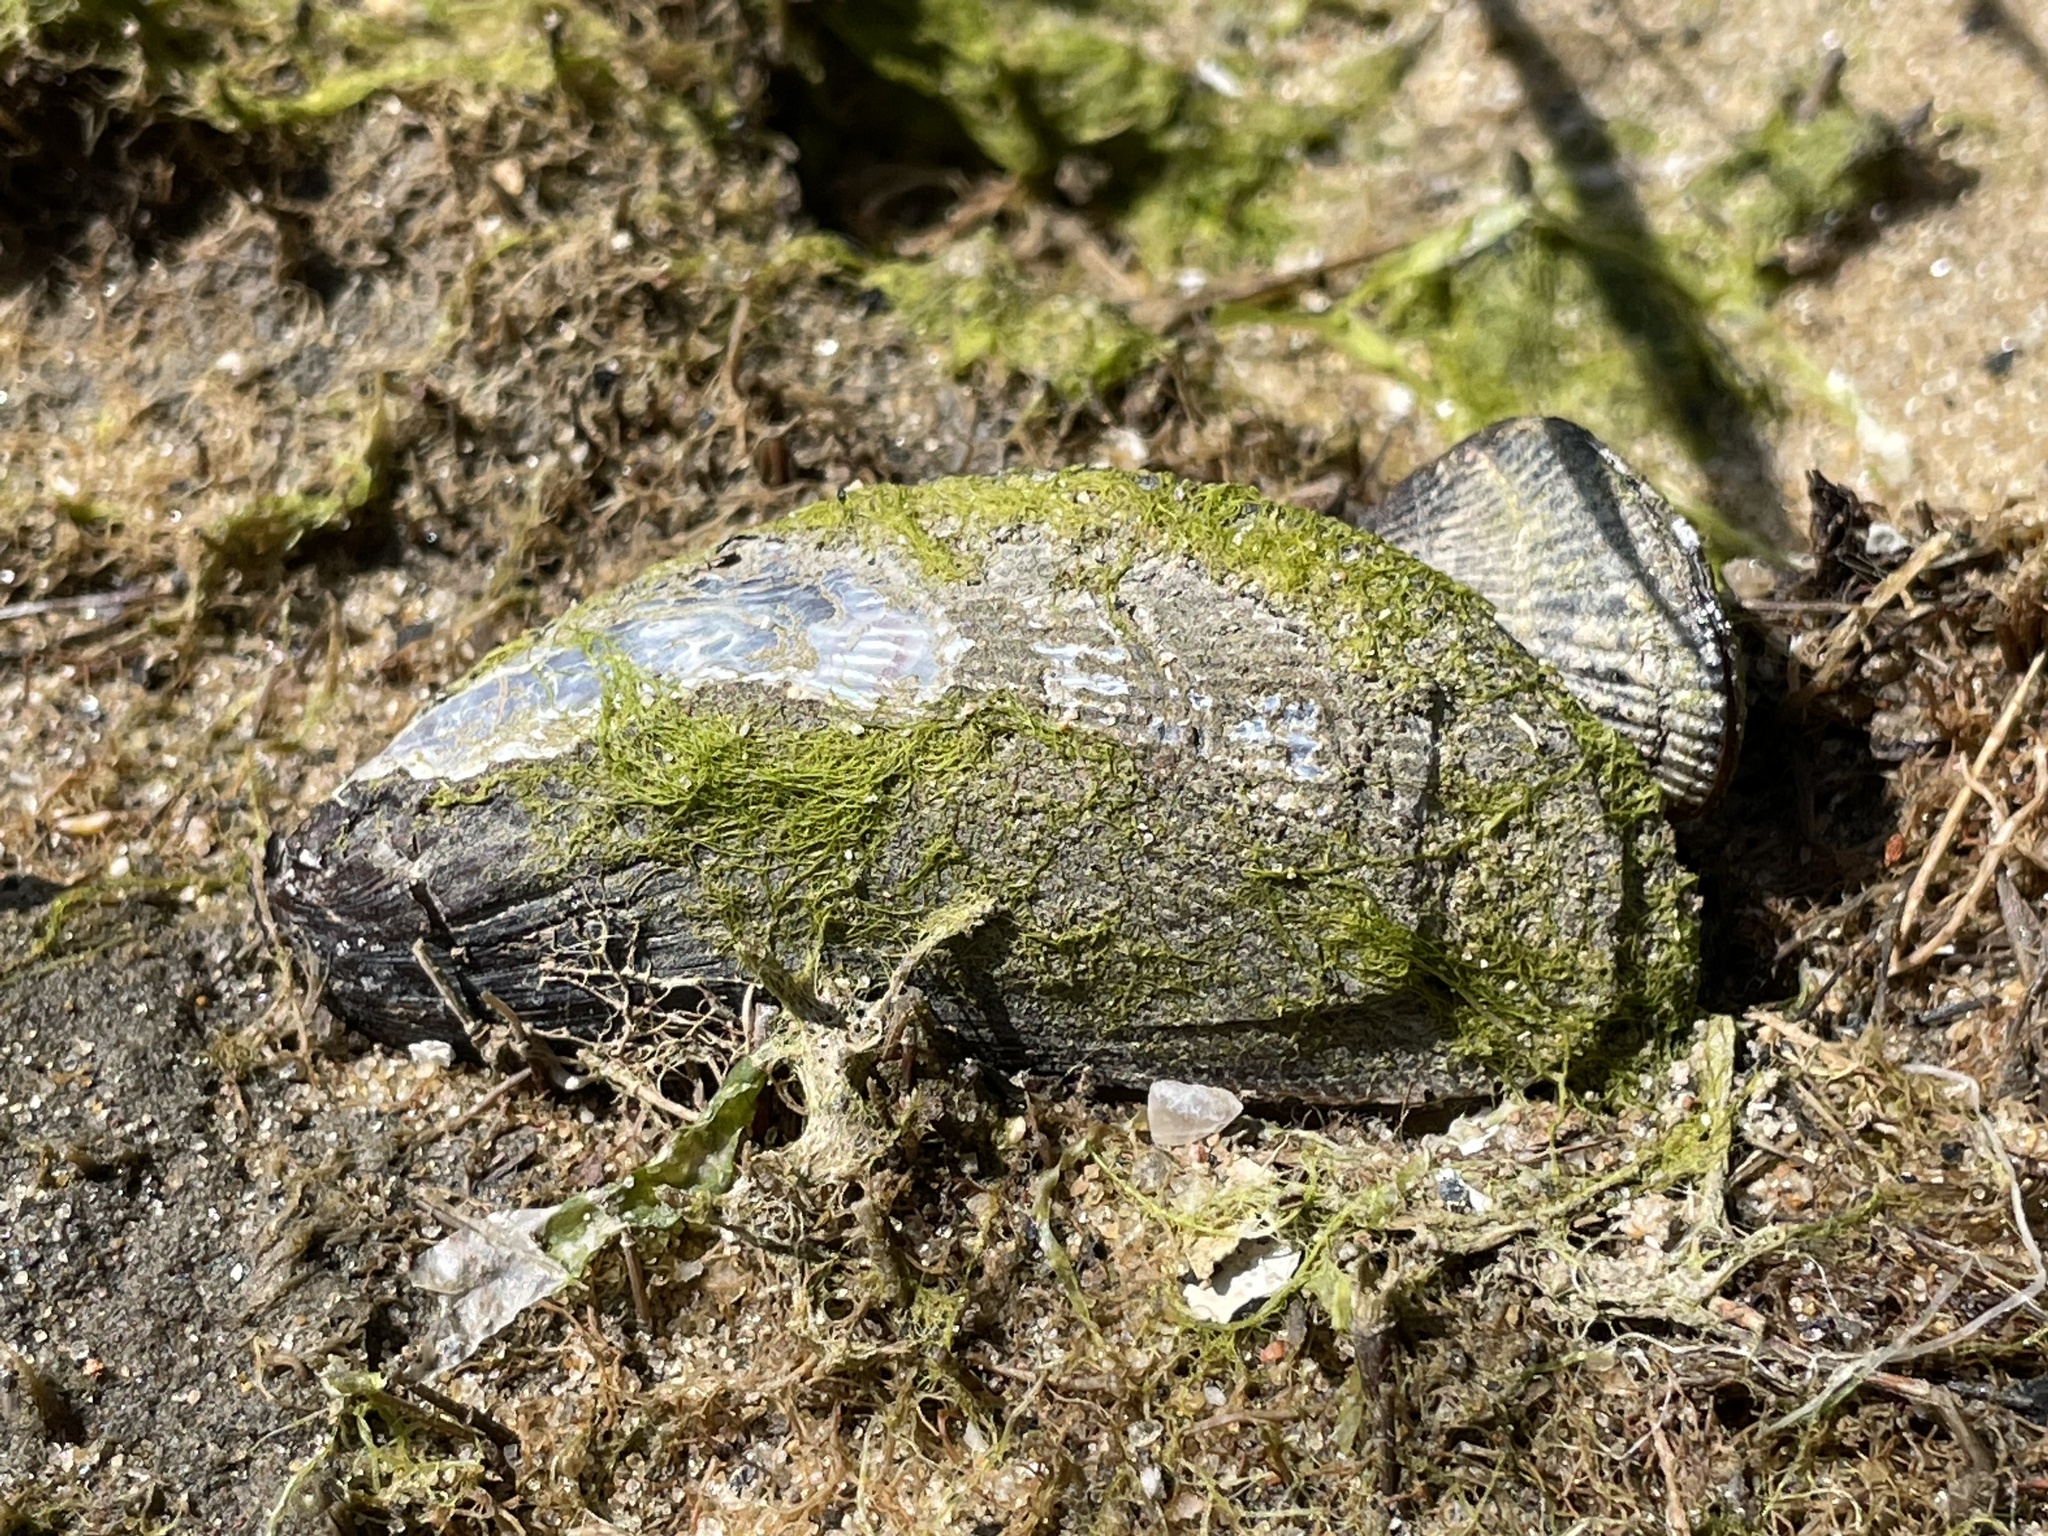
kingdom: Animalia
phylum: Mollusca
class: Bivalvia
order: Mytilida
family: Mytilidae
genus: Geukensia
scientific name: Geukensia demissa
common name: Ribbed mussel
